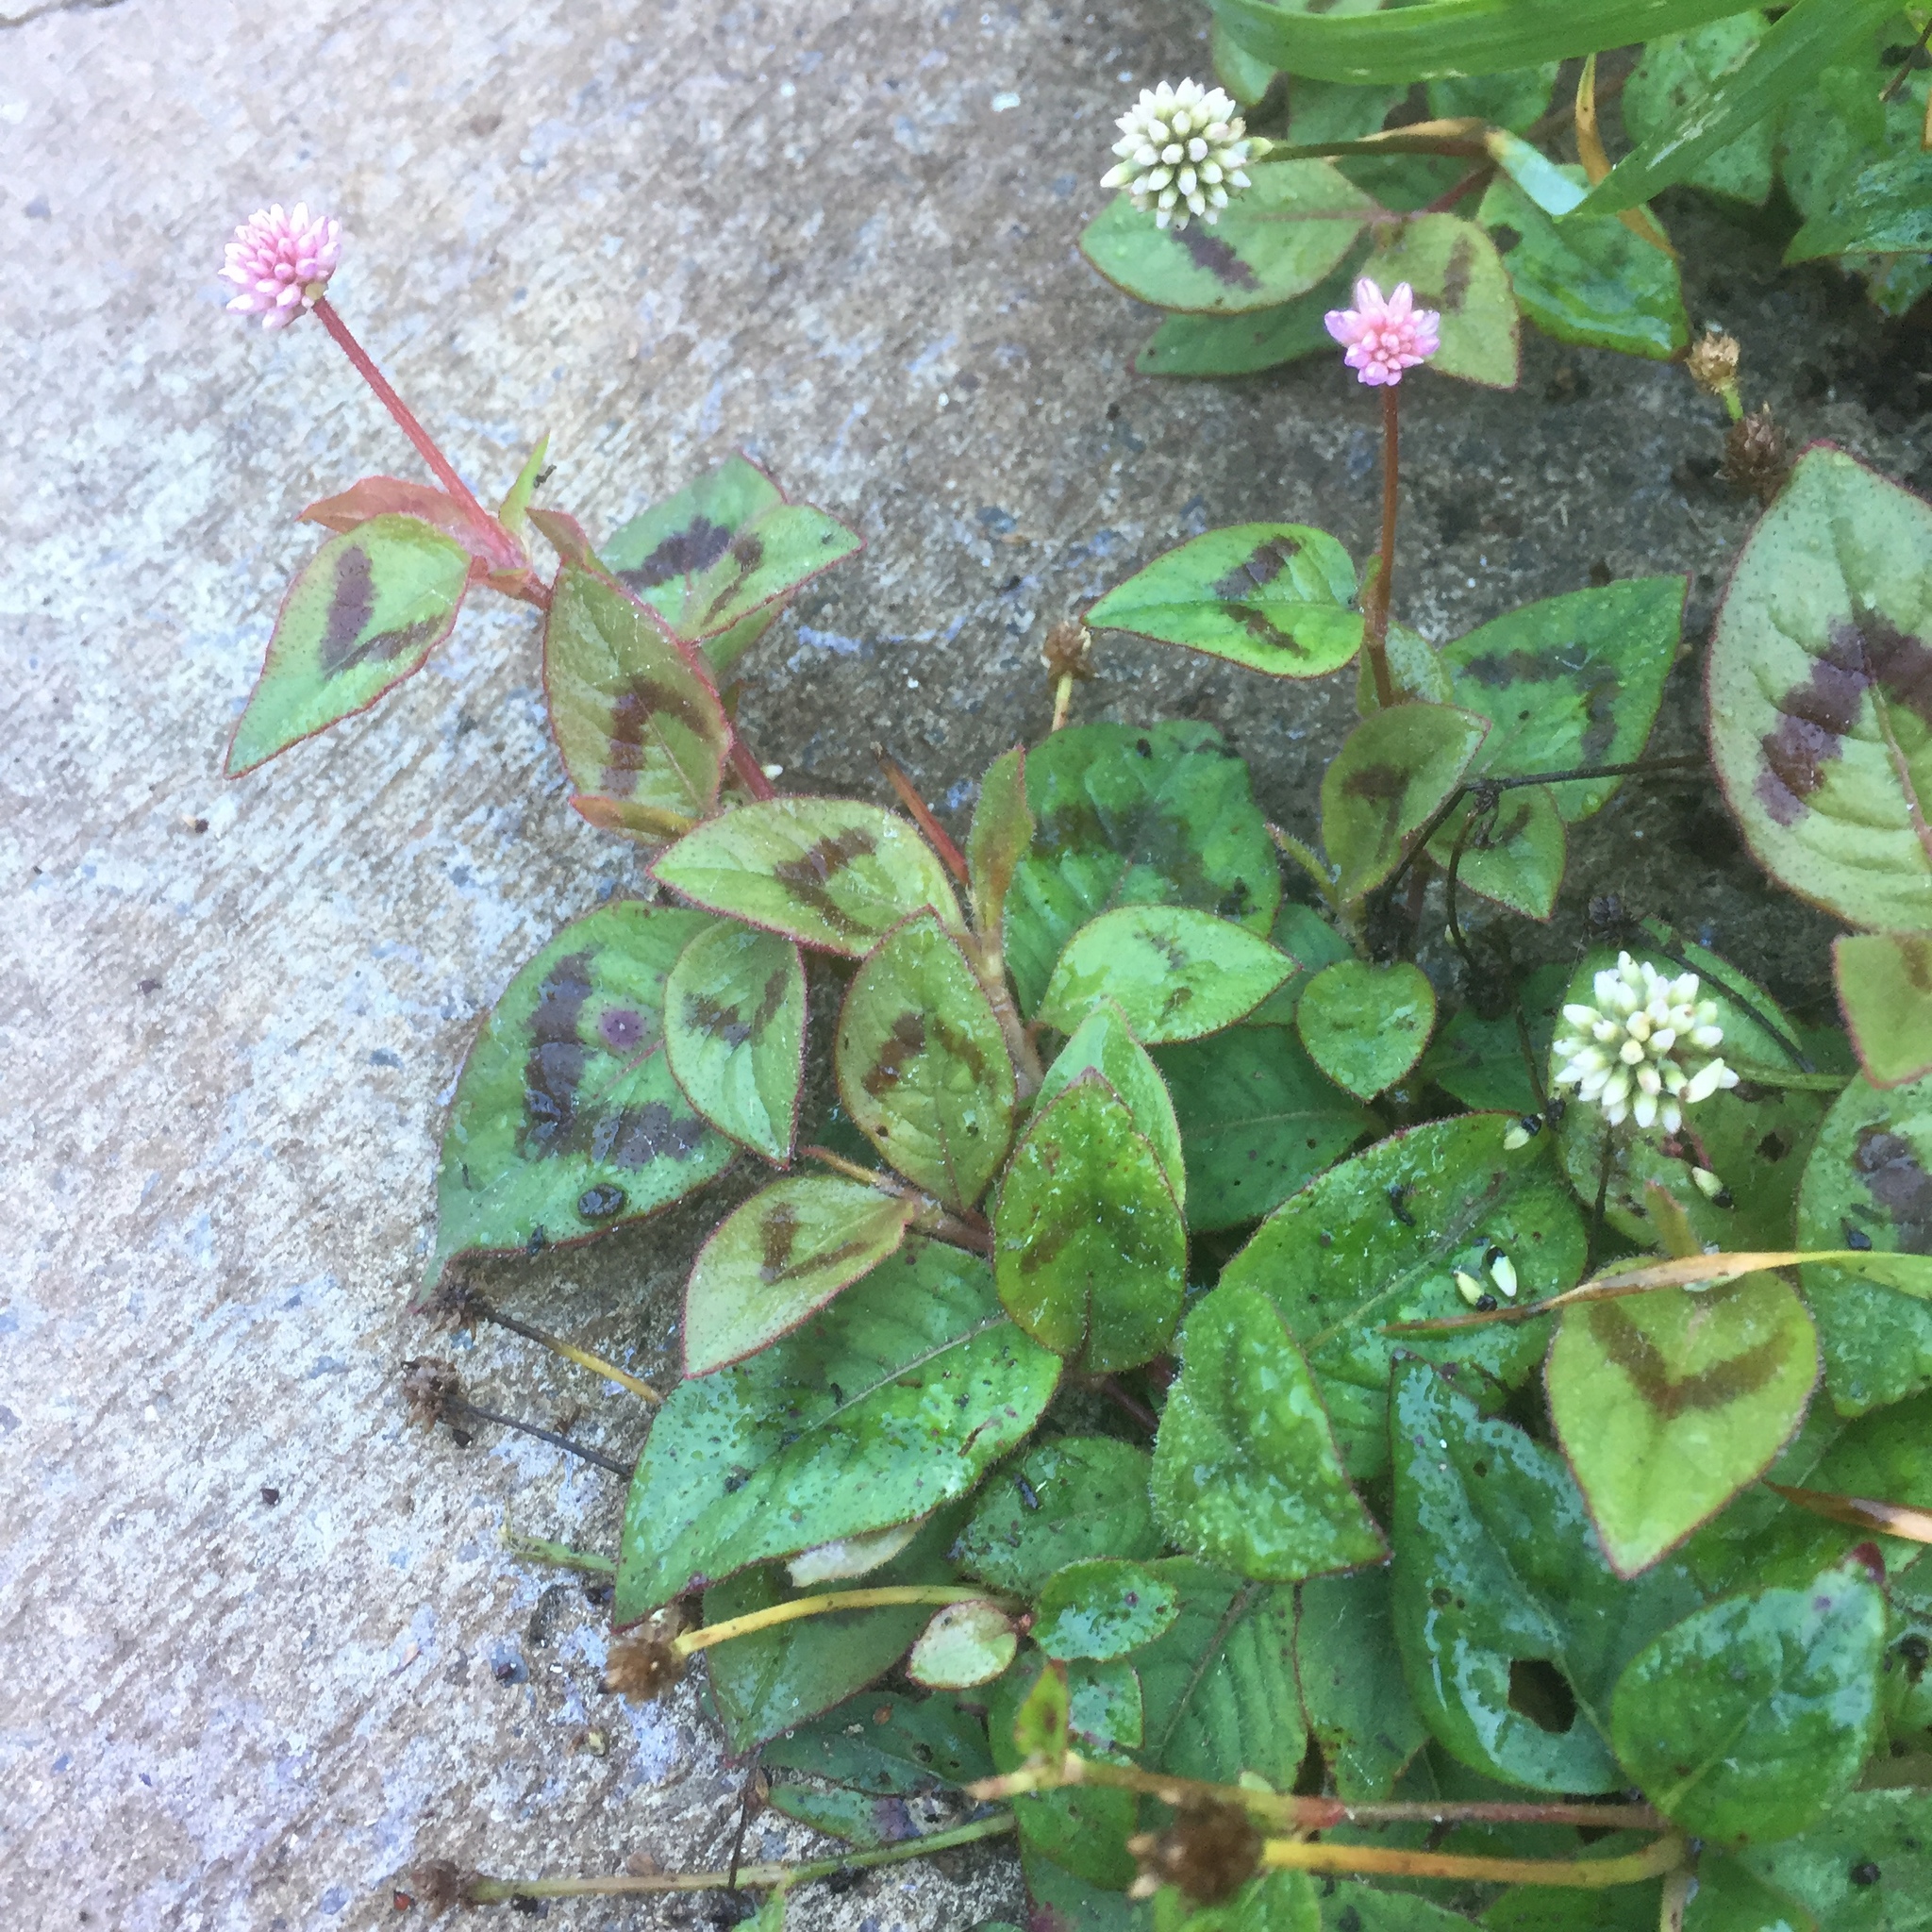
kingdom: Plantae
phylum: Tracheophyta
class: Magnoliopsida
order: Caryophyllales
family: Polygonaceae
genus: Persicaria
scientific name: Persicaria capitata
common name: Pinkhead smartweed
